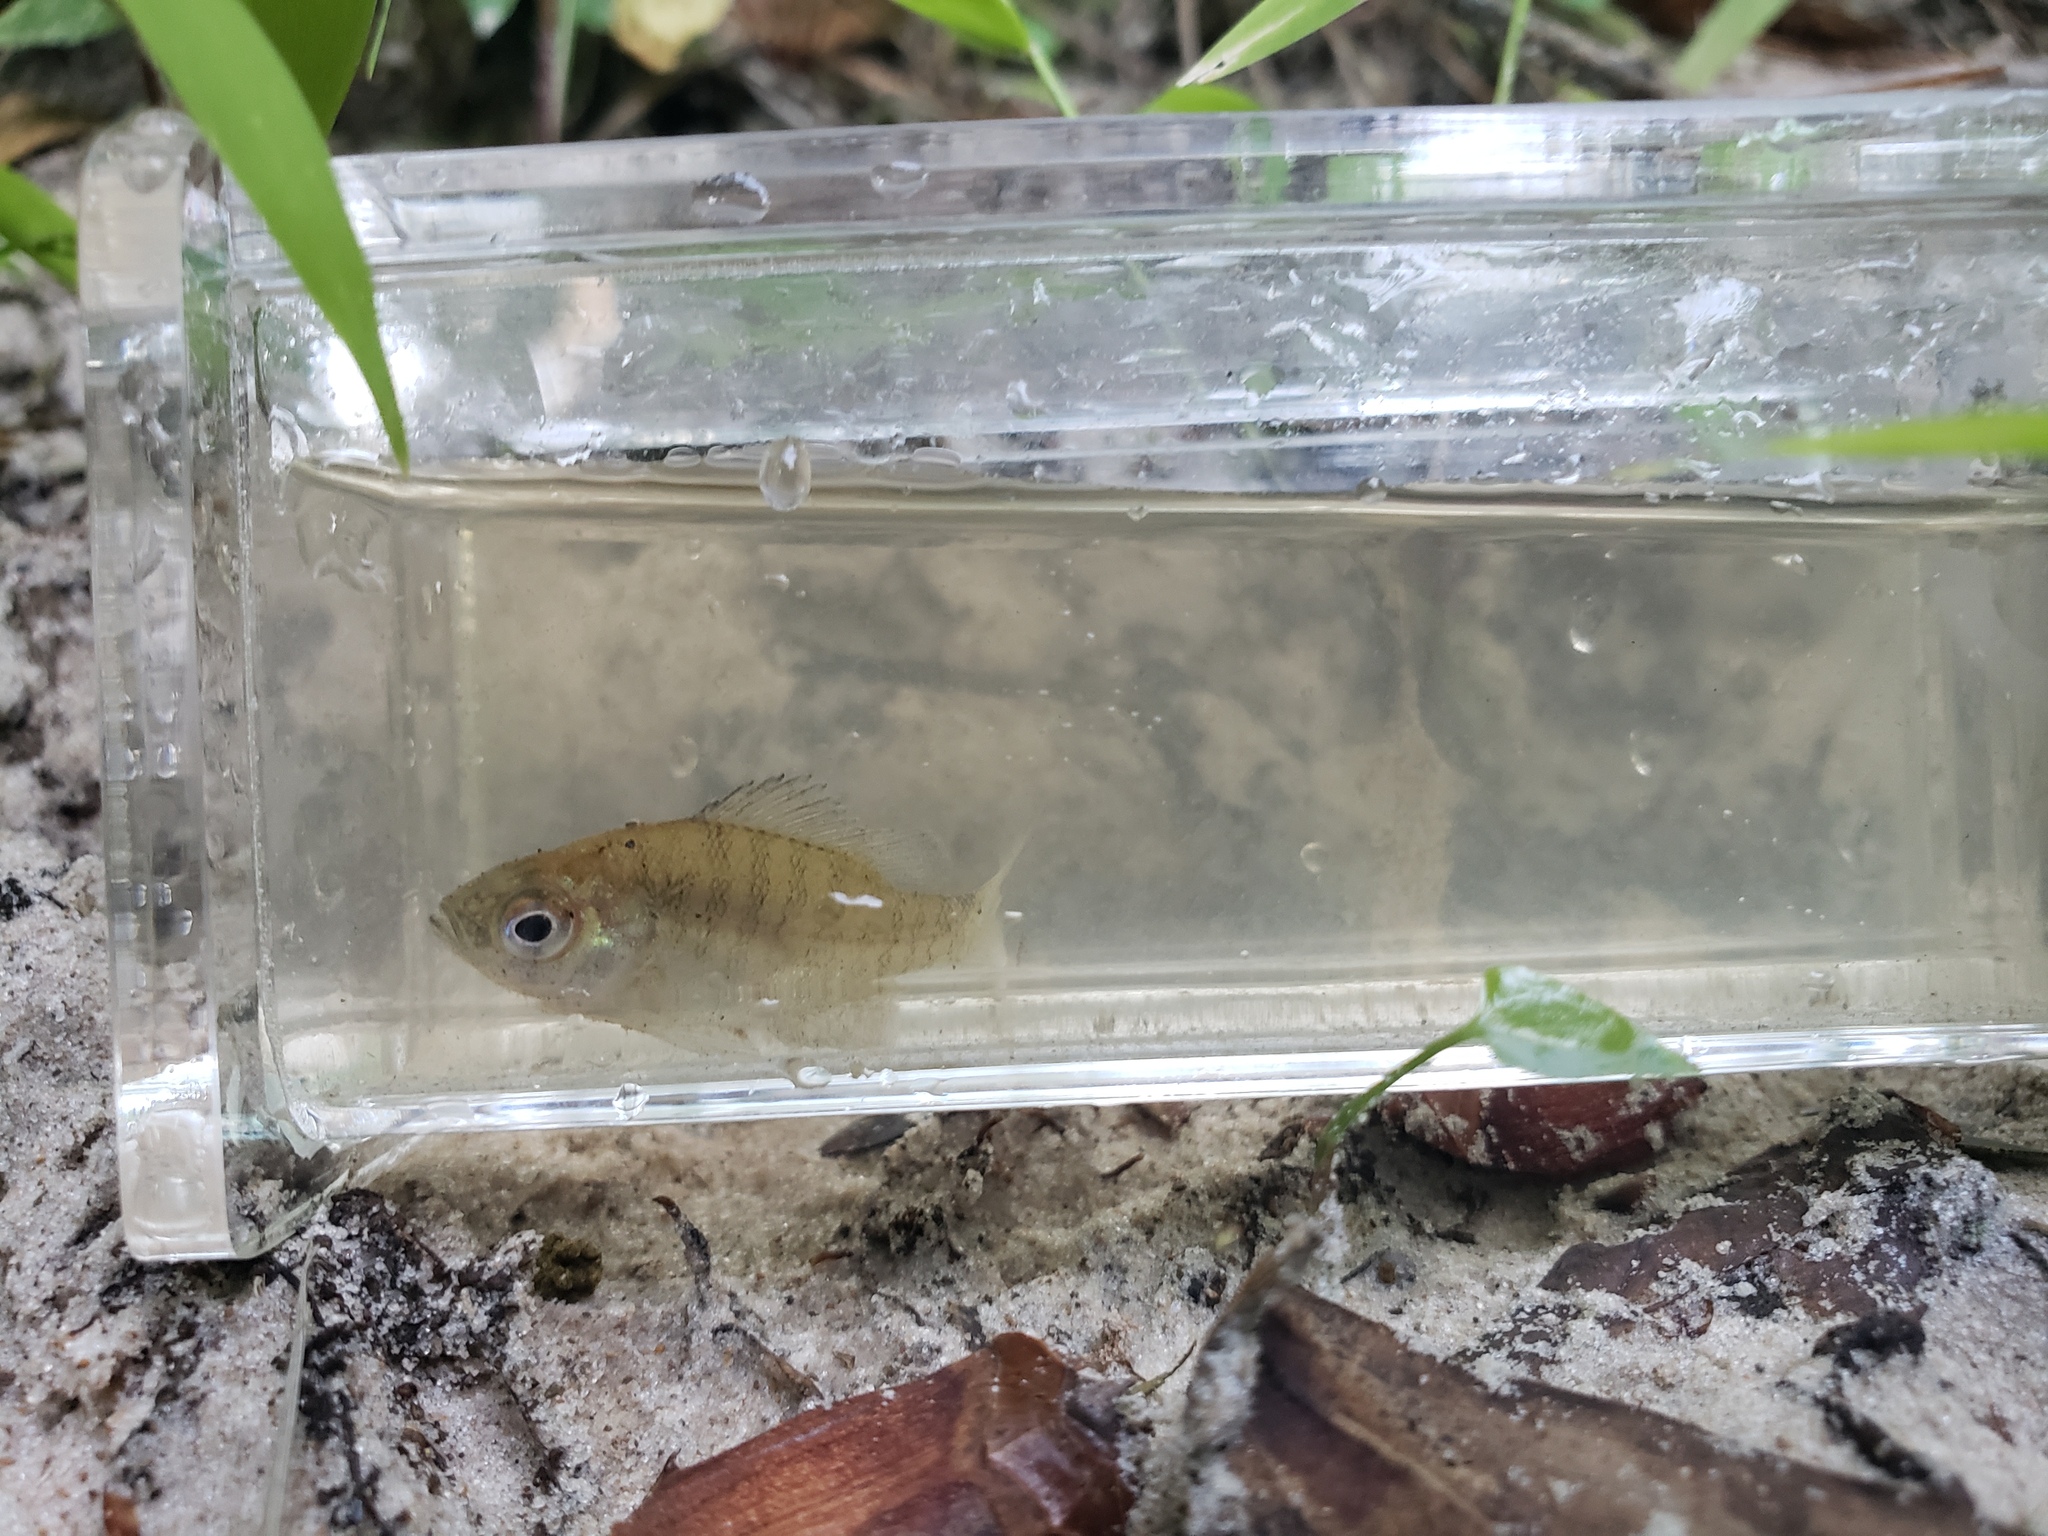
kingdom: Animalia
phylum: Chordata
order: Perciformes
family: Centrarchidae
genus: Lepomis
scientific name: Lepomis macrochirus
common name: Bluegill
